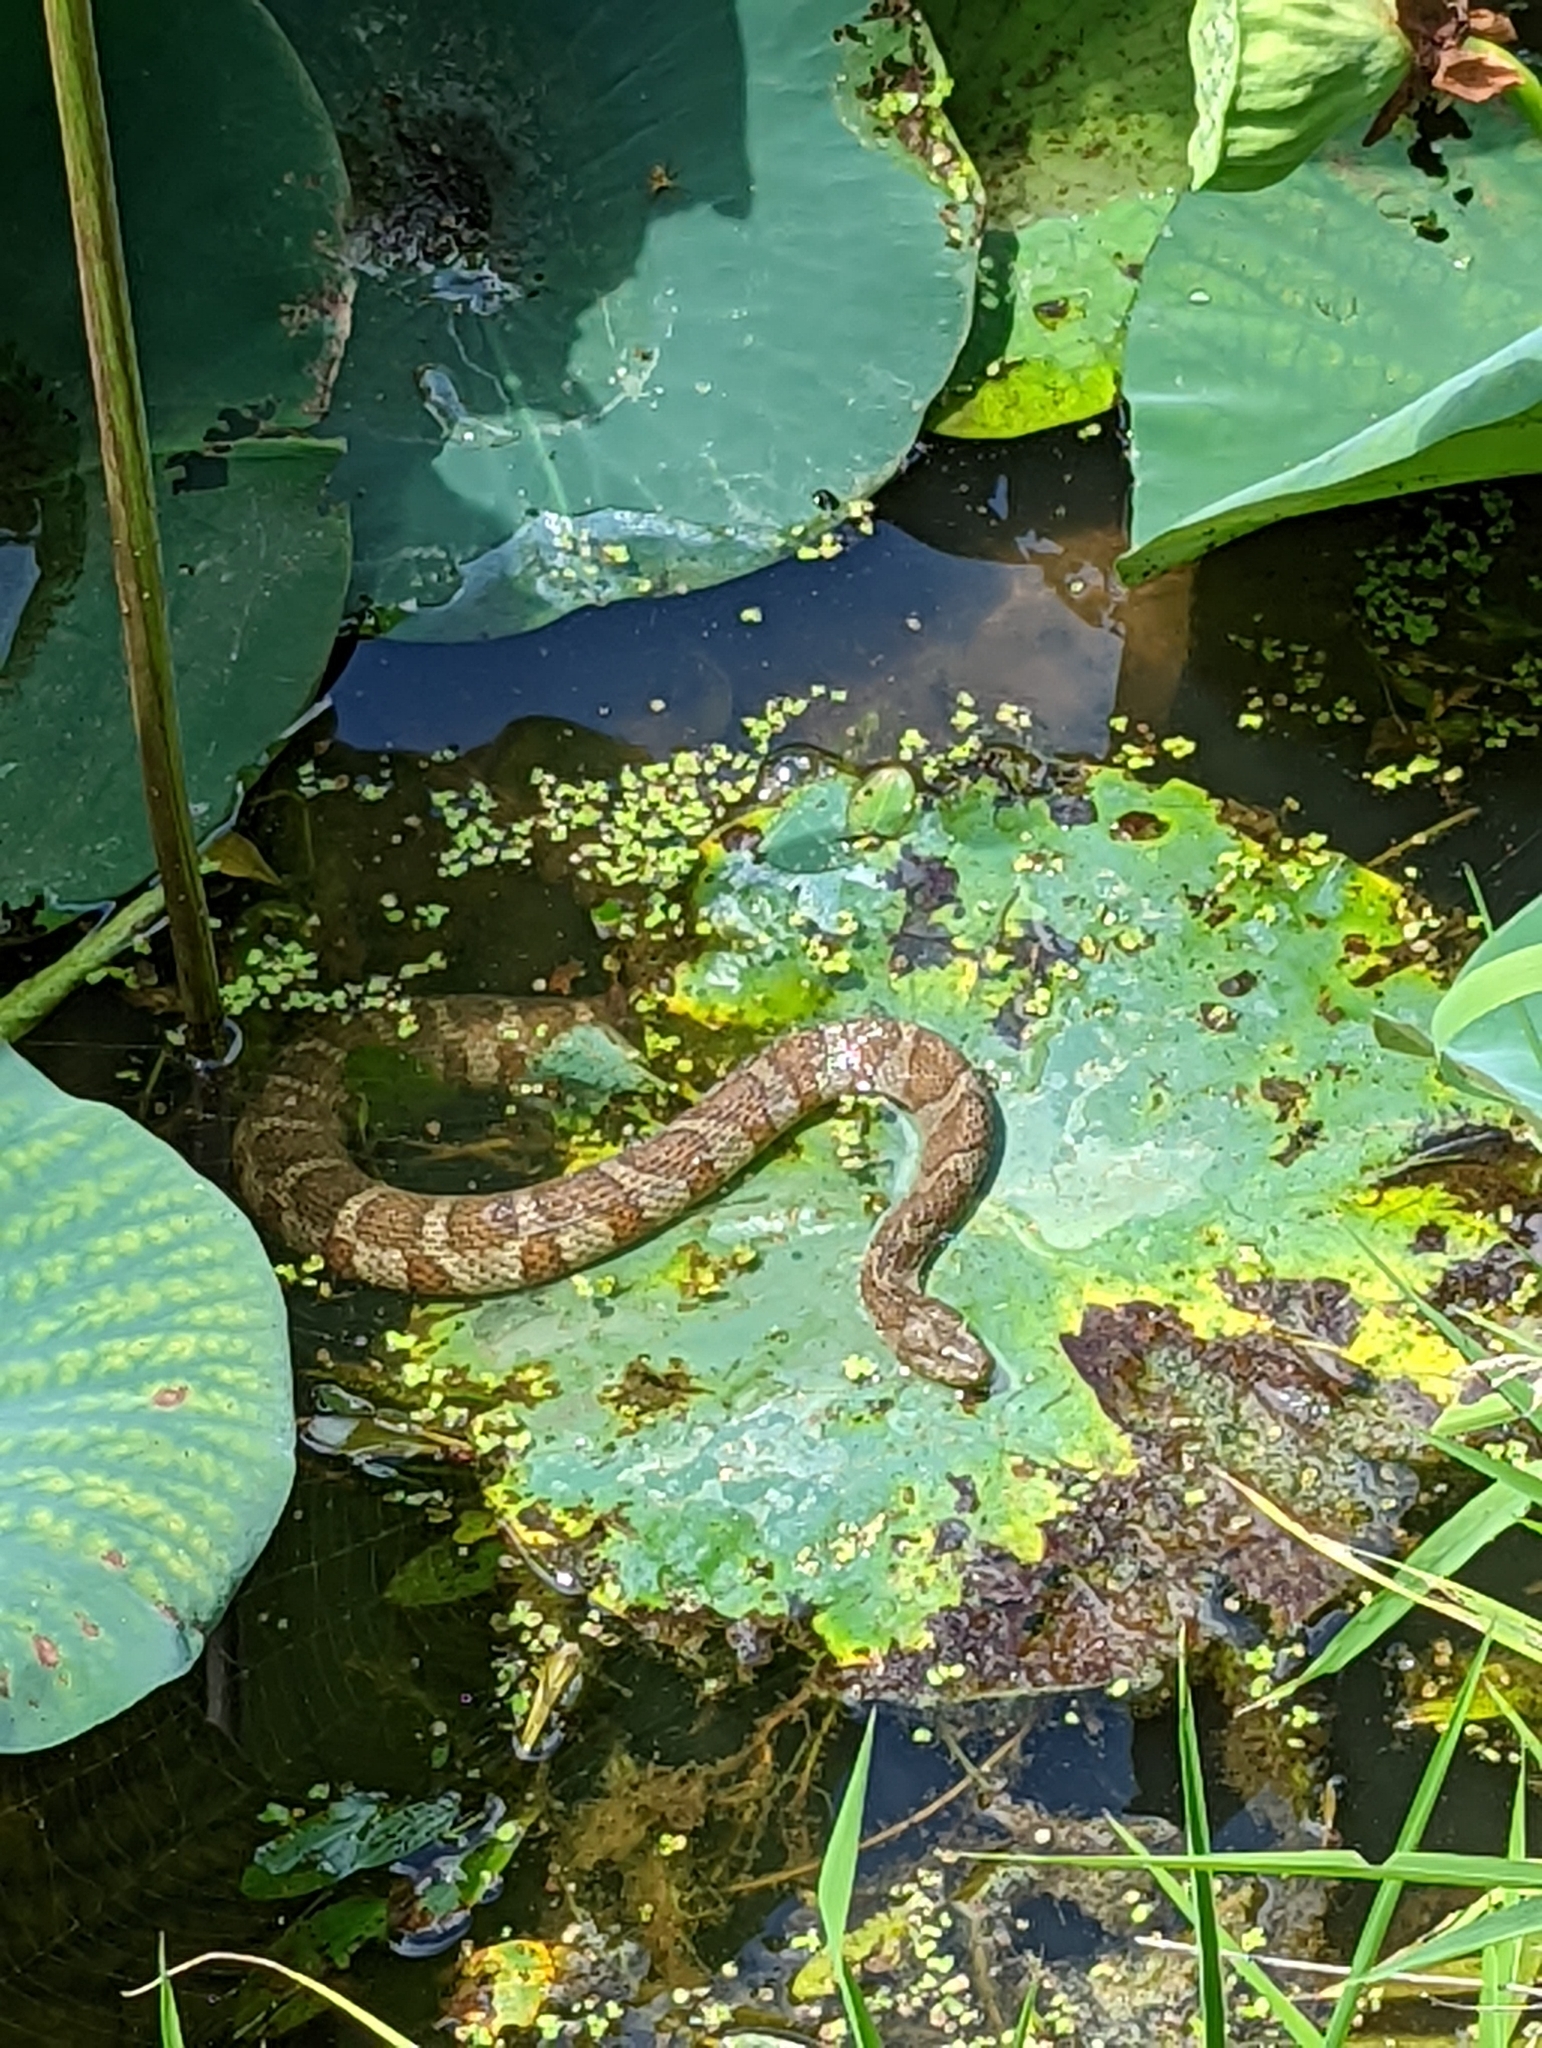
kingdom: Animalia
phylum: Chordata
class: Squamata
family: Colubridae
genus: Nerodia
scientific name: Nerodia sipedon
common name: Northern water snake
